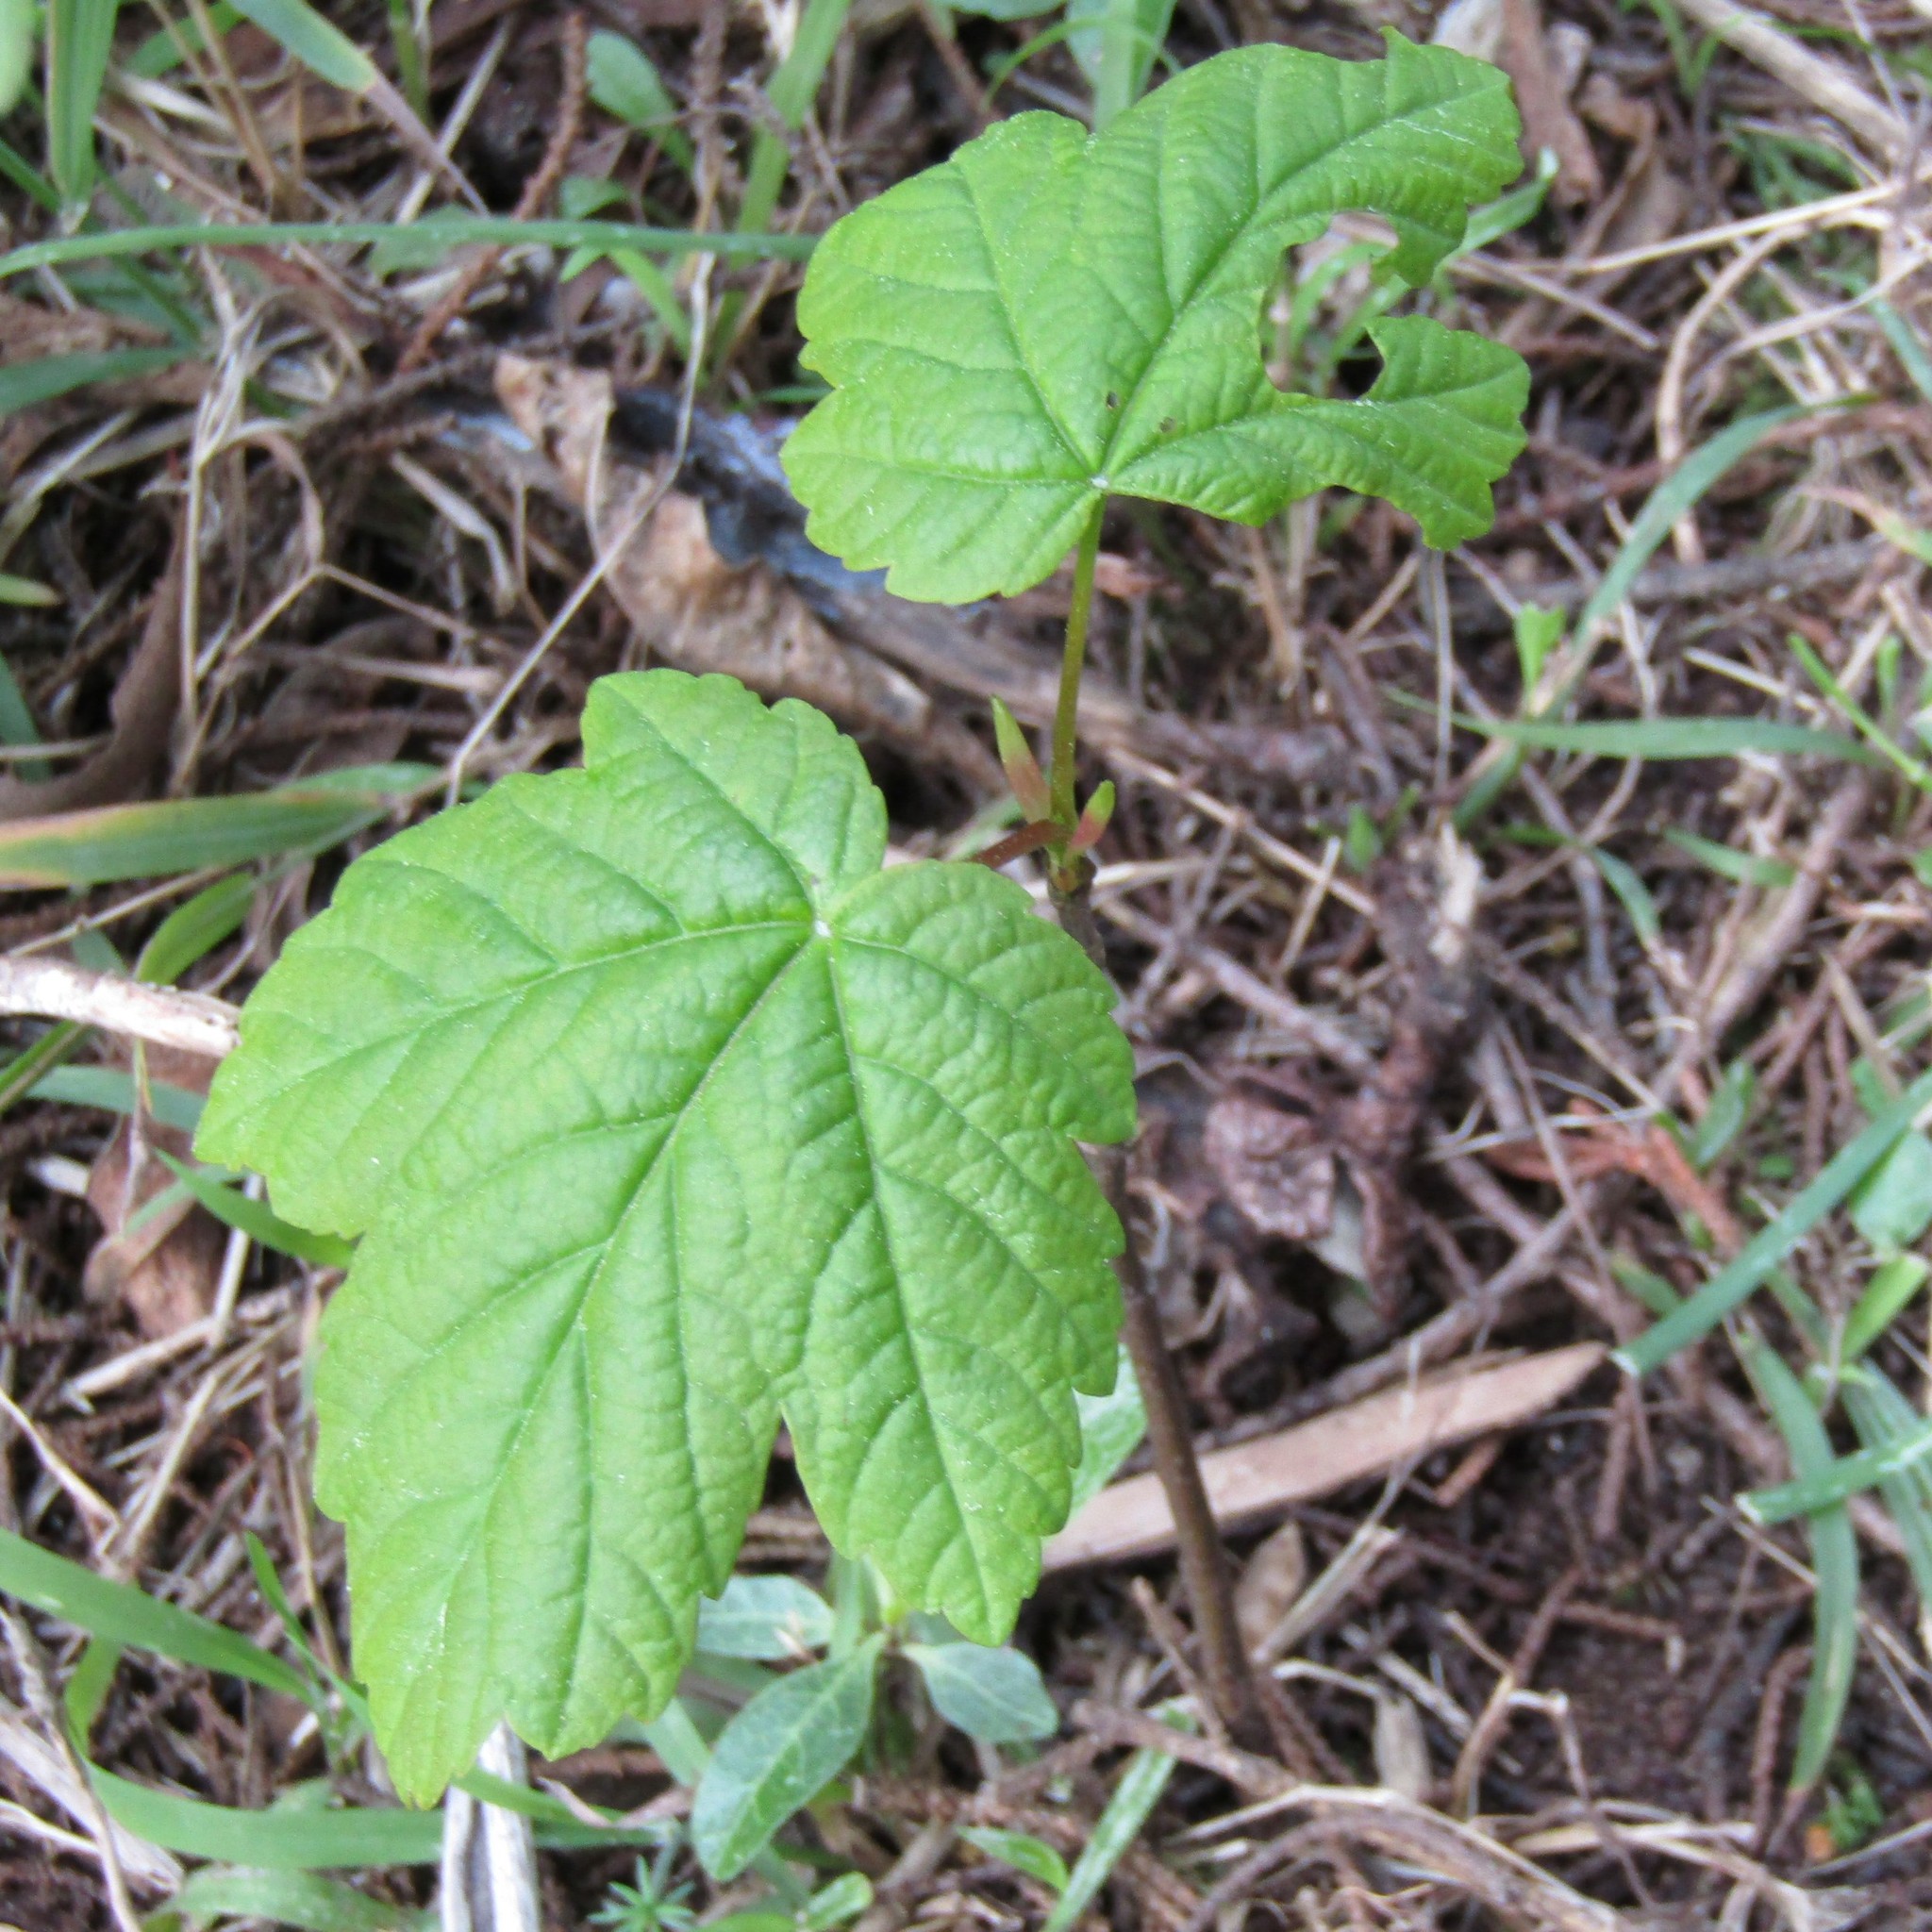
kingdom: Plantae
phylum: Tracheophyta
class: Magnoliopsida
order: Sapindales
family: Sapindaceae
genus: Acer
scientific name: Acer pseudoplatanus
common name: Sycamore
